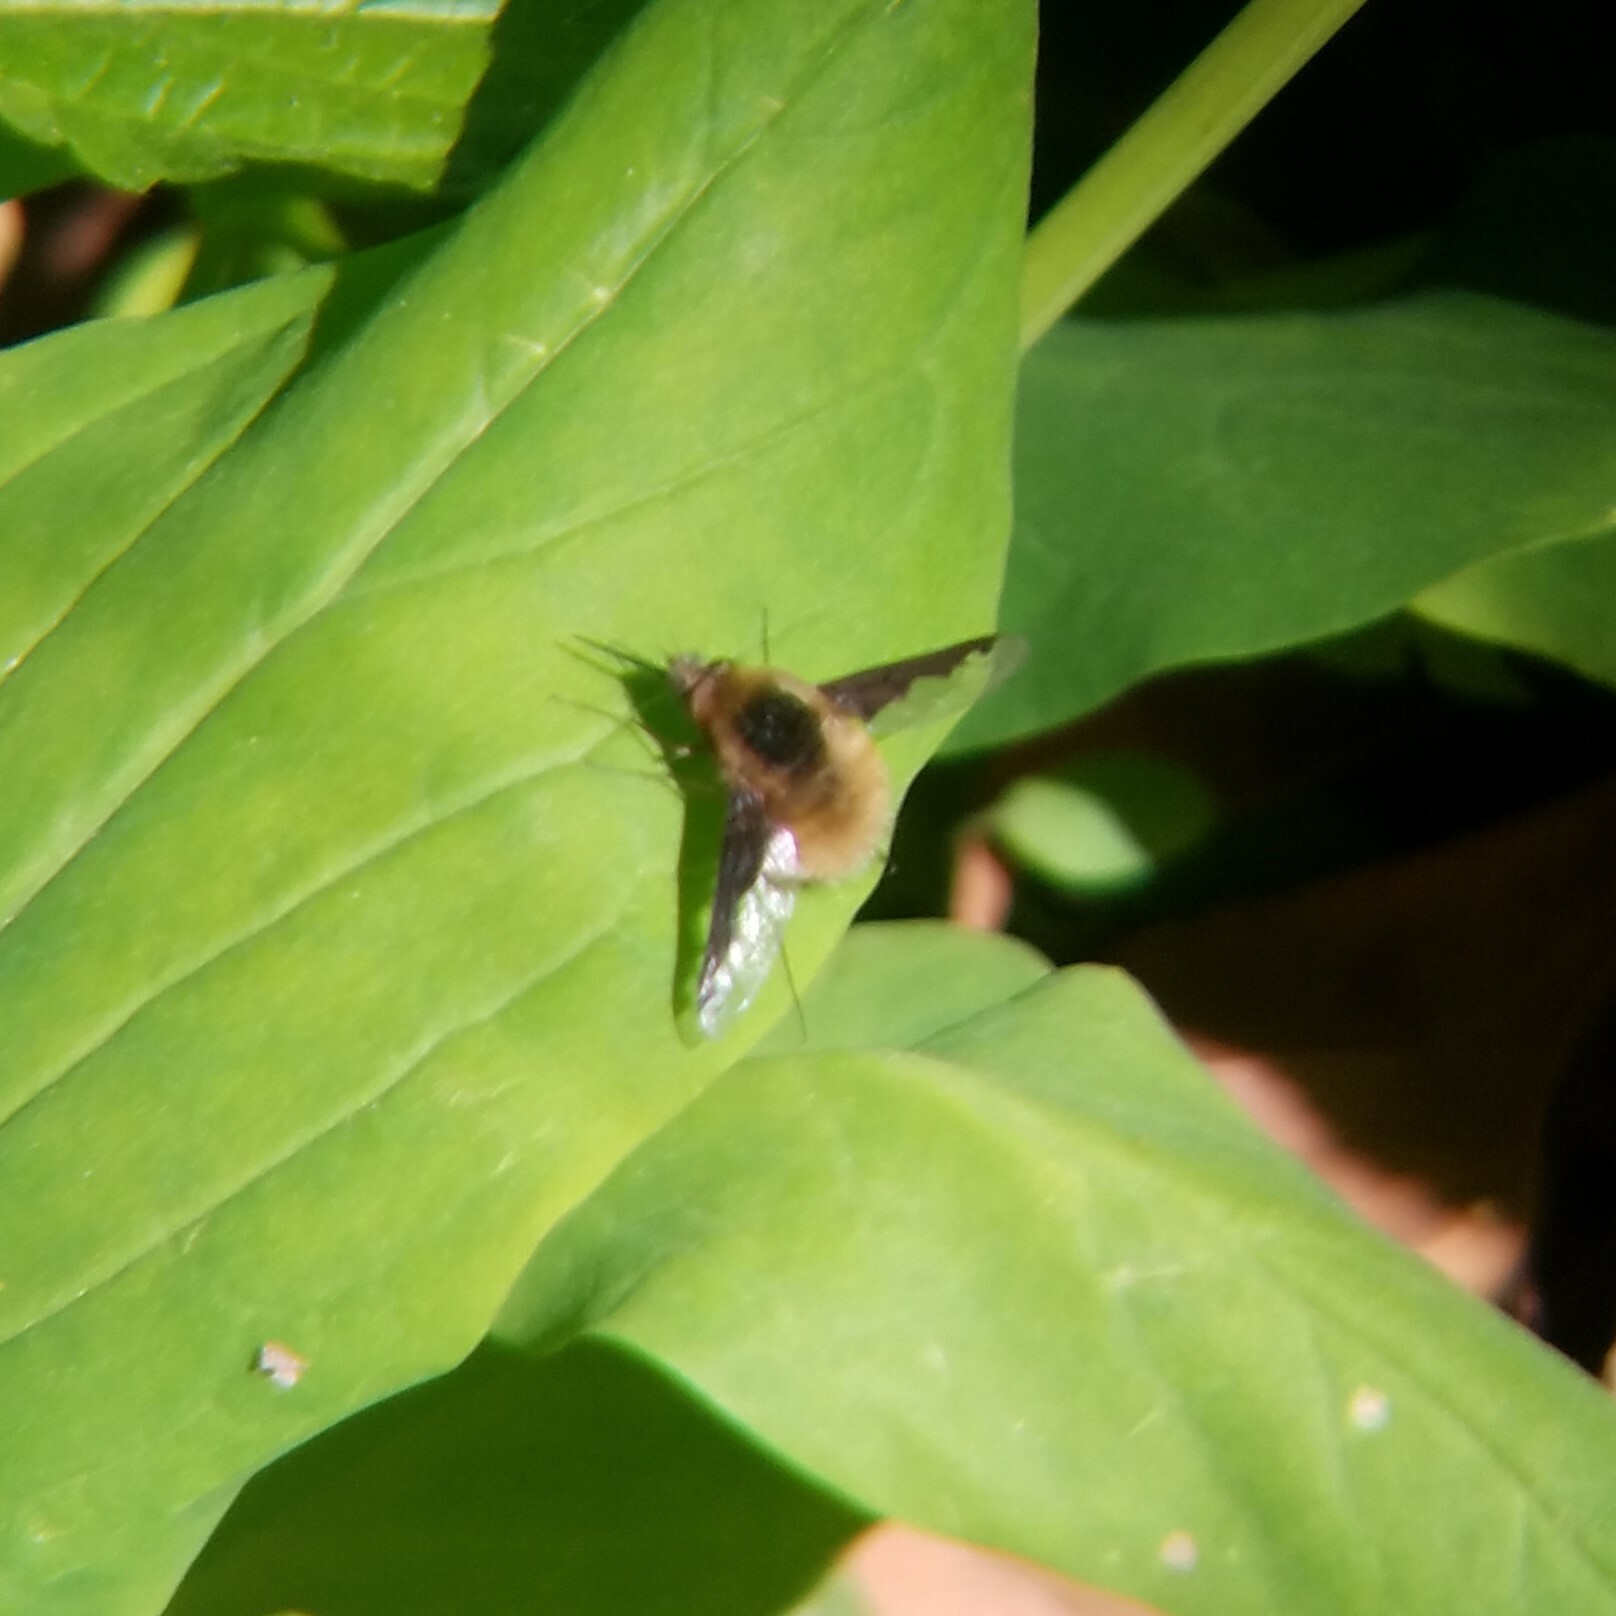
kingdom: Animalia
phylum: Arthropoda
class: Insecta
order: Diptera
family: Bombyliidae
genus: Bombylius
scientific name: Bombylius major
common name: Bee fly
